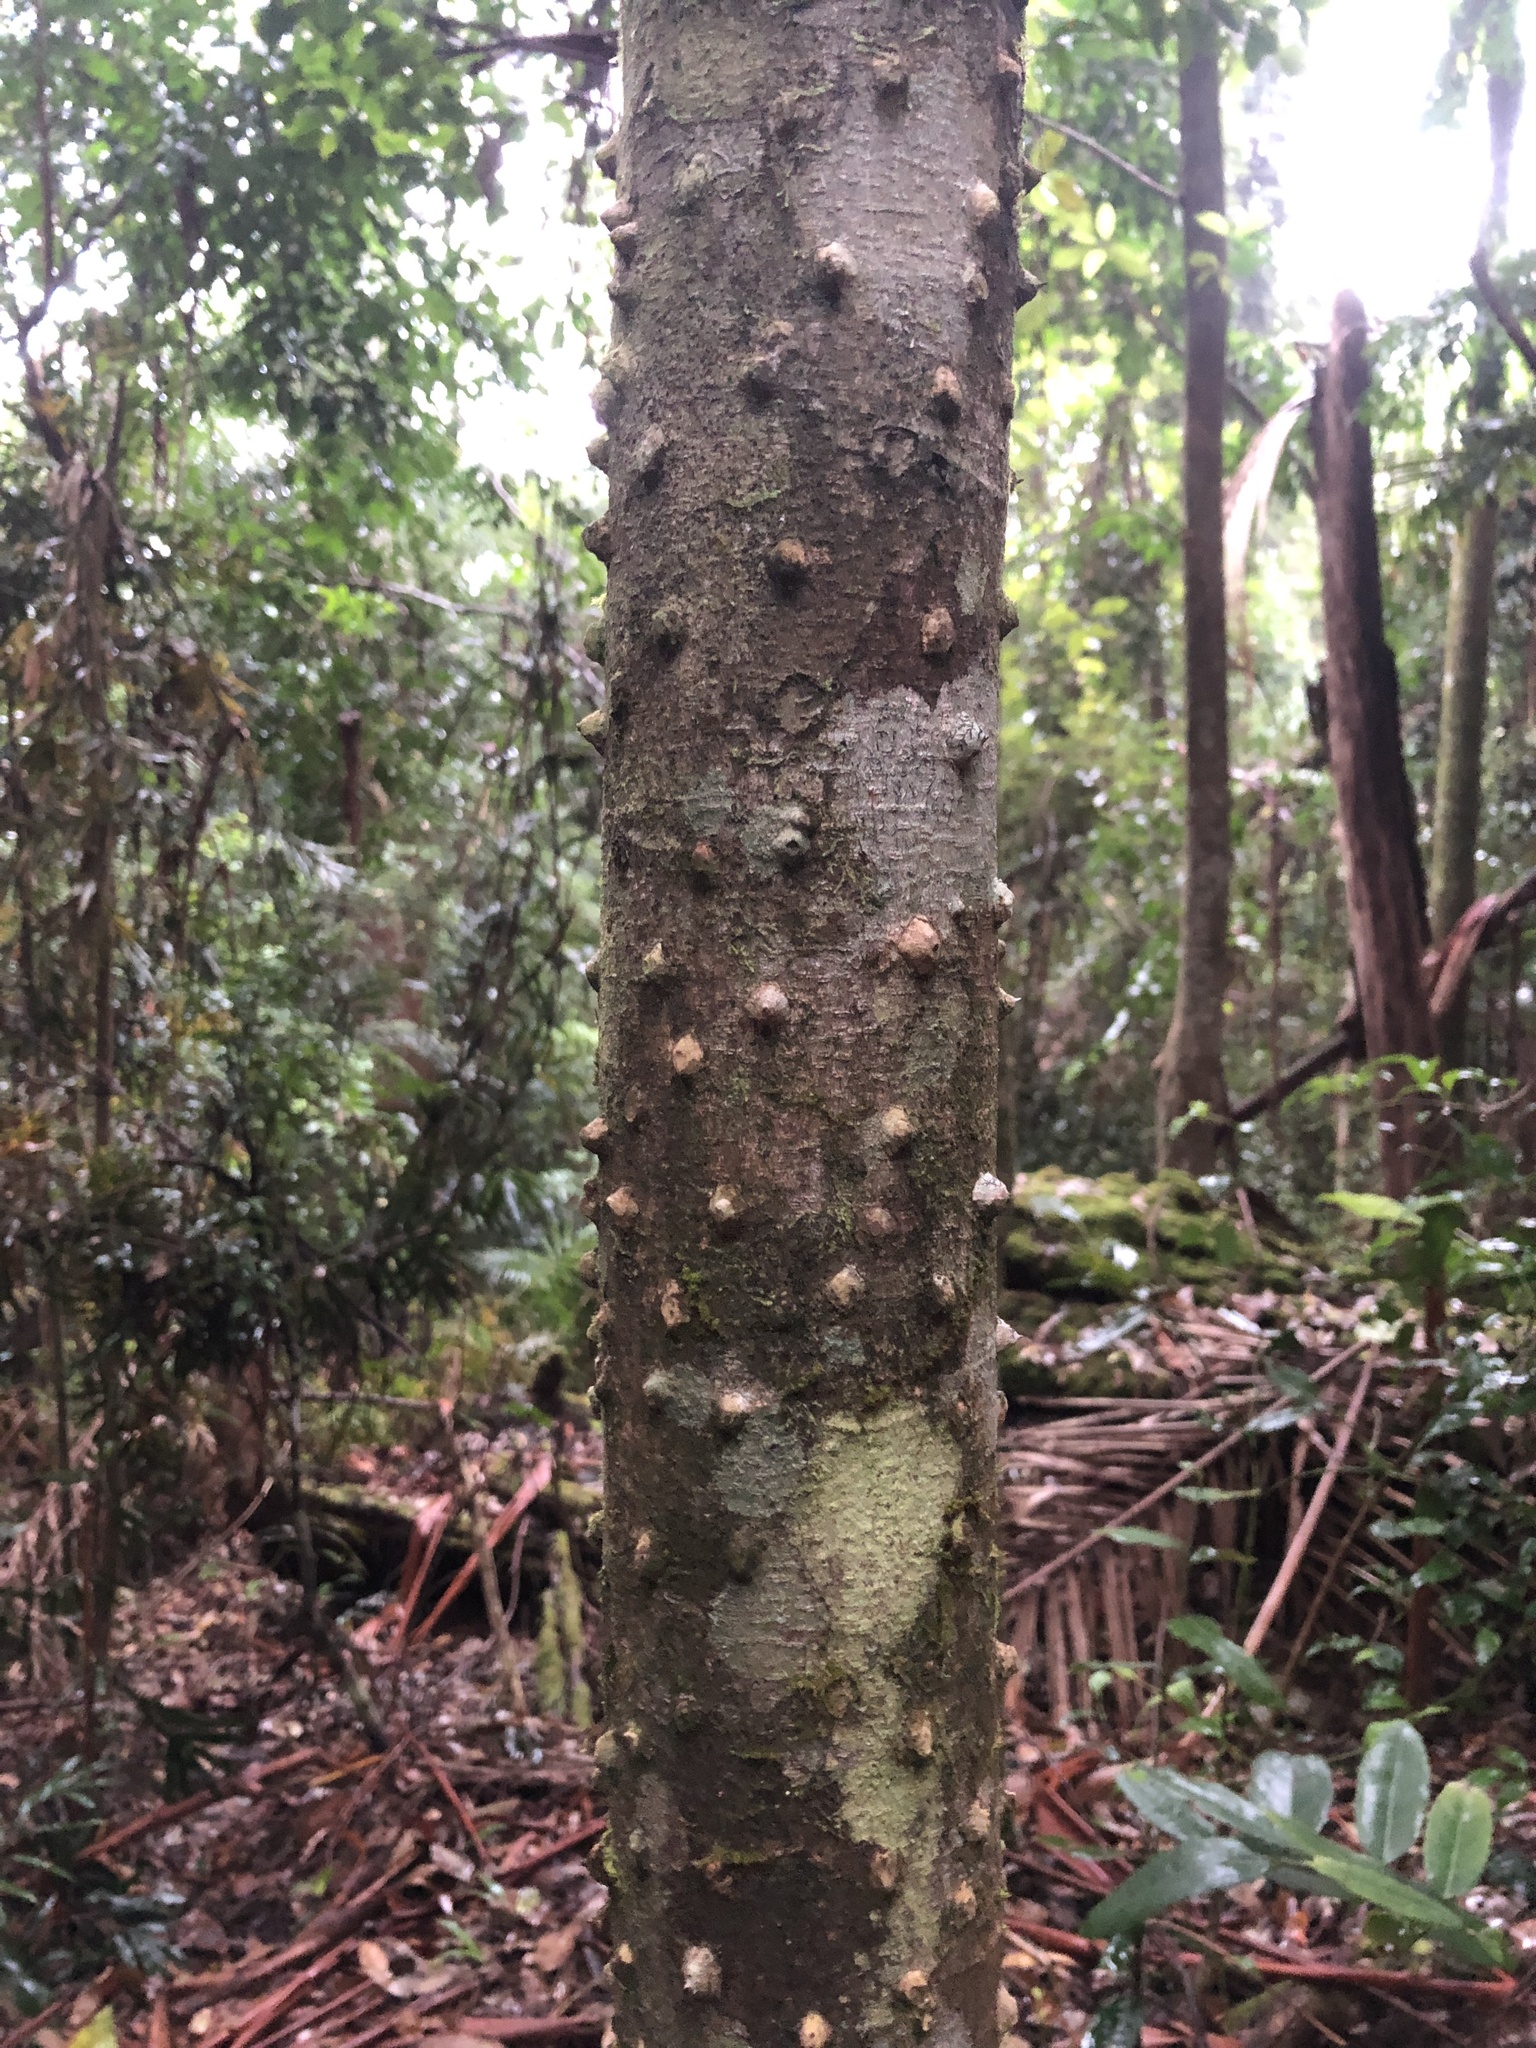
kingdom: Plantae
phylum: Tracheophyta
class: Magnoliopsida
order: Sapindales
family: Rutaceae
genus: Zanthoxylum
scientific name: Zanthoxylum brachyacanthum
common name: Satinwood
